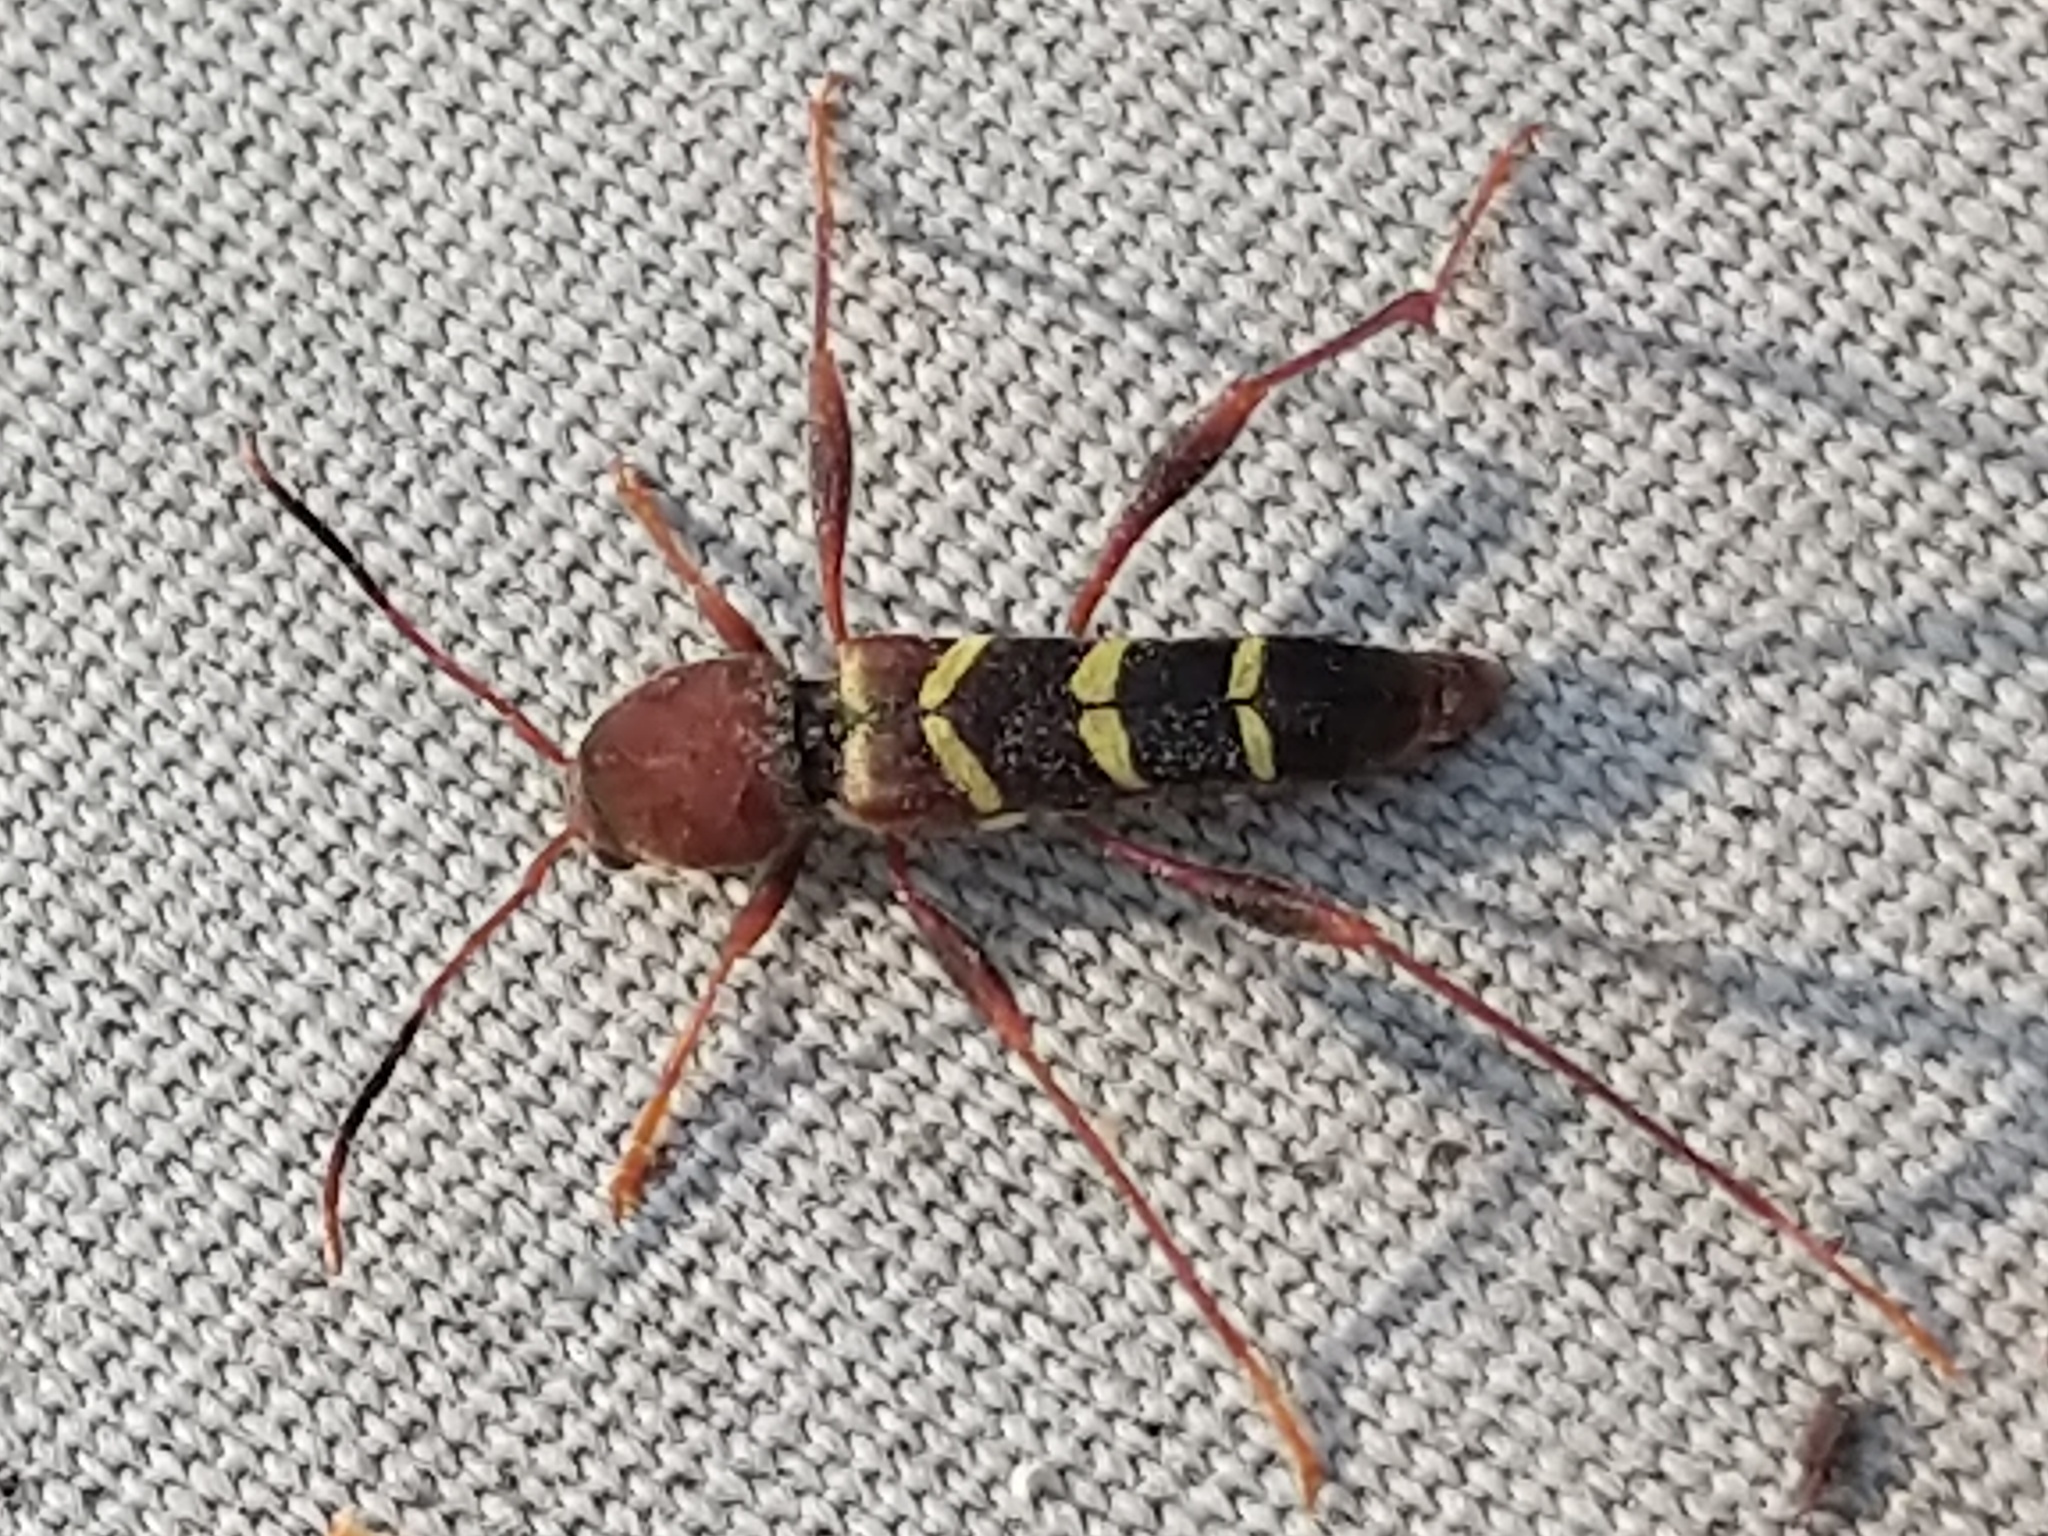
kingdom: Animalia
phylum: Arthropoda
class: Insecta
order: Coleoptera
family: Cerambycidae
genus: Neoclytus
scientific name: Neoclytus acuminatus
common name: Read-headed ash borer
